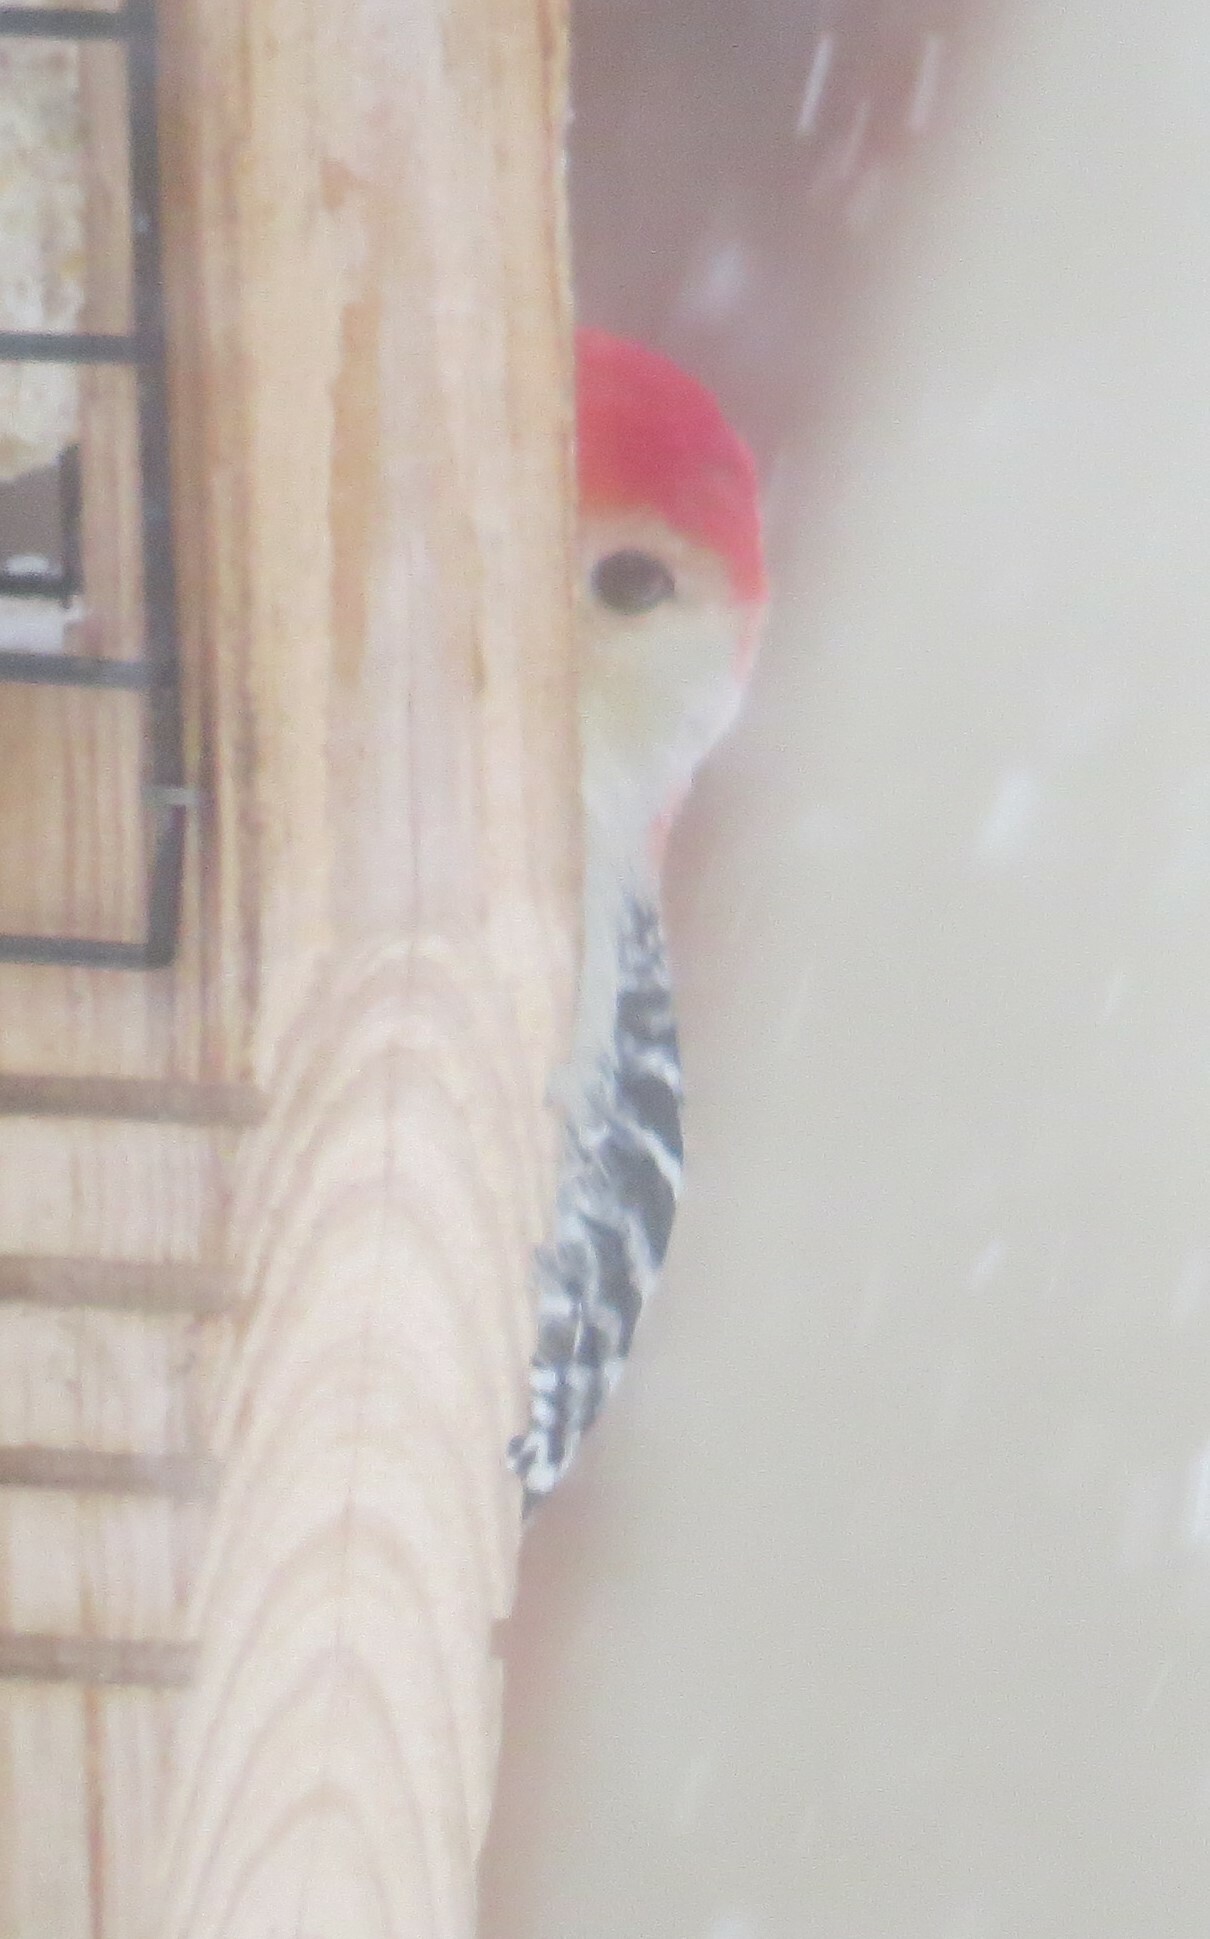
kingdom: Animalia
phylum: Chordata
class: Aves
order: Piciformes
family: Picidae
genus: Melanerpes
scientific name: Melanerpes carolinus
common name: Red-bellied woodpecker
